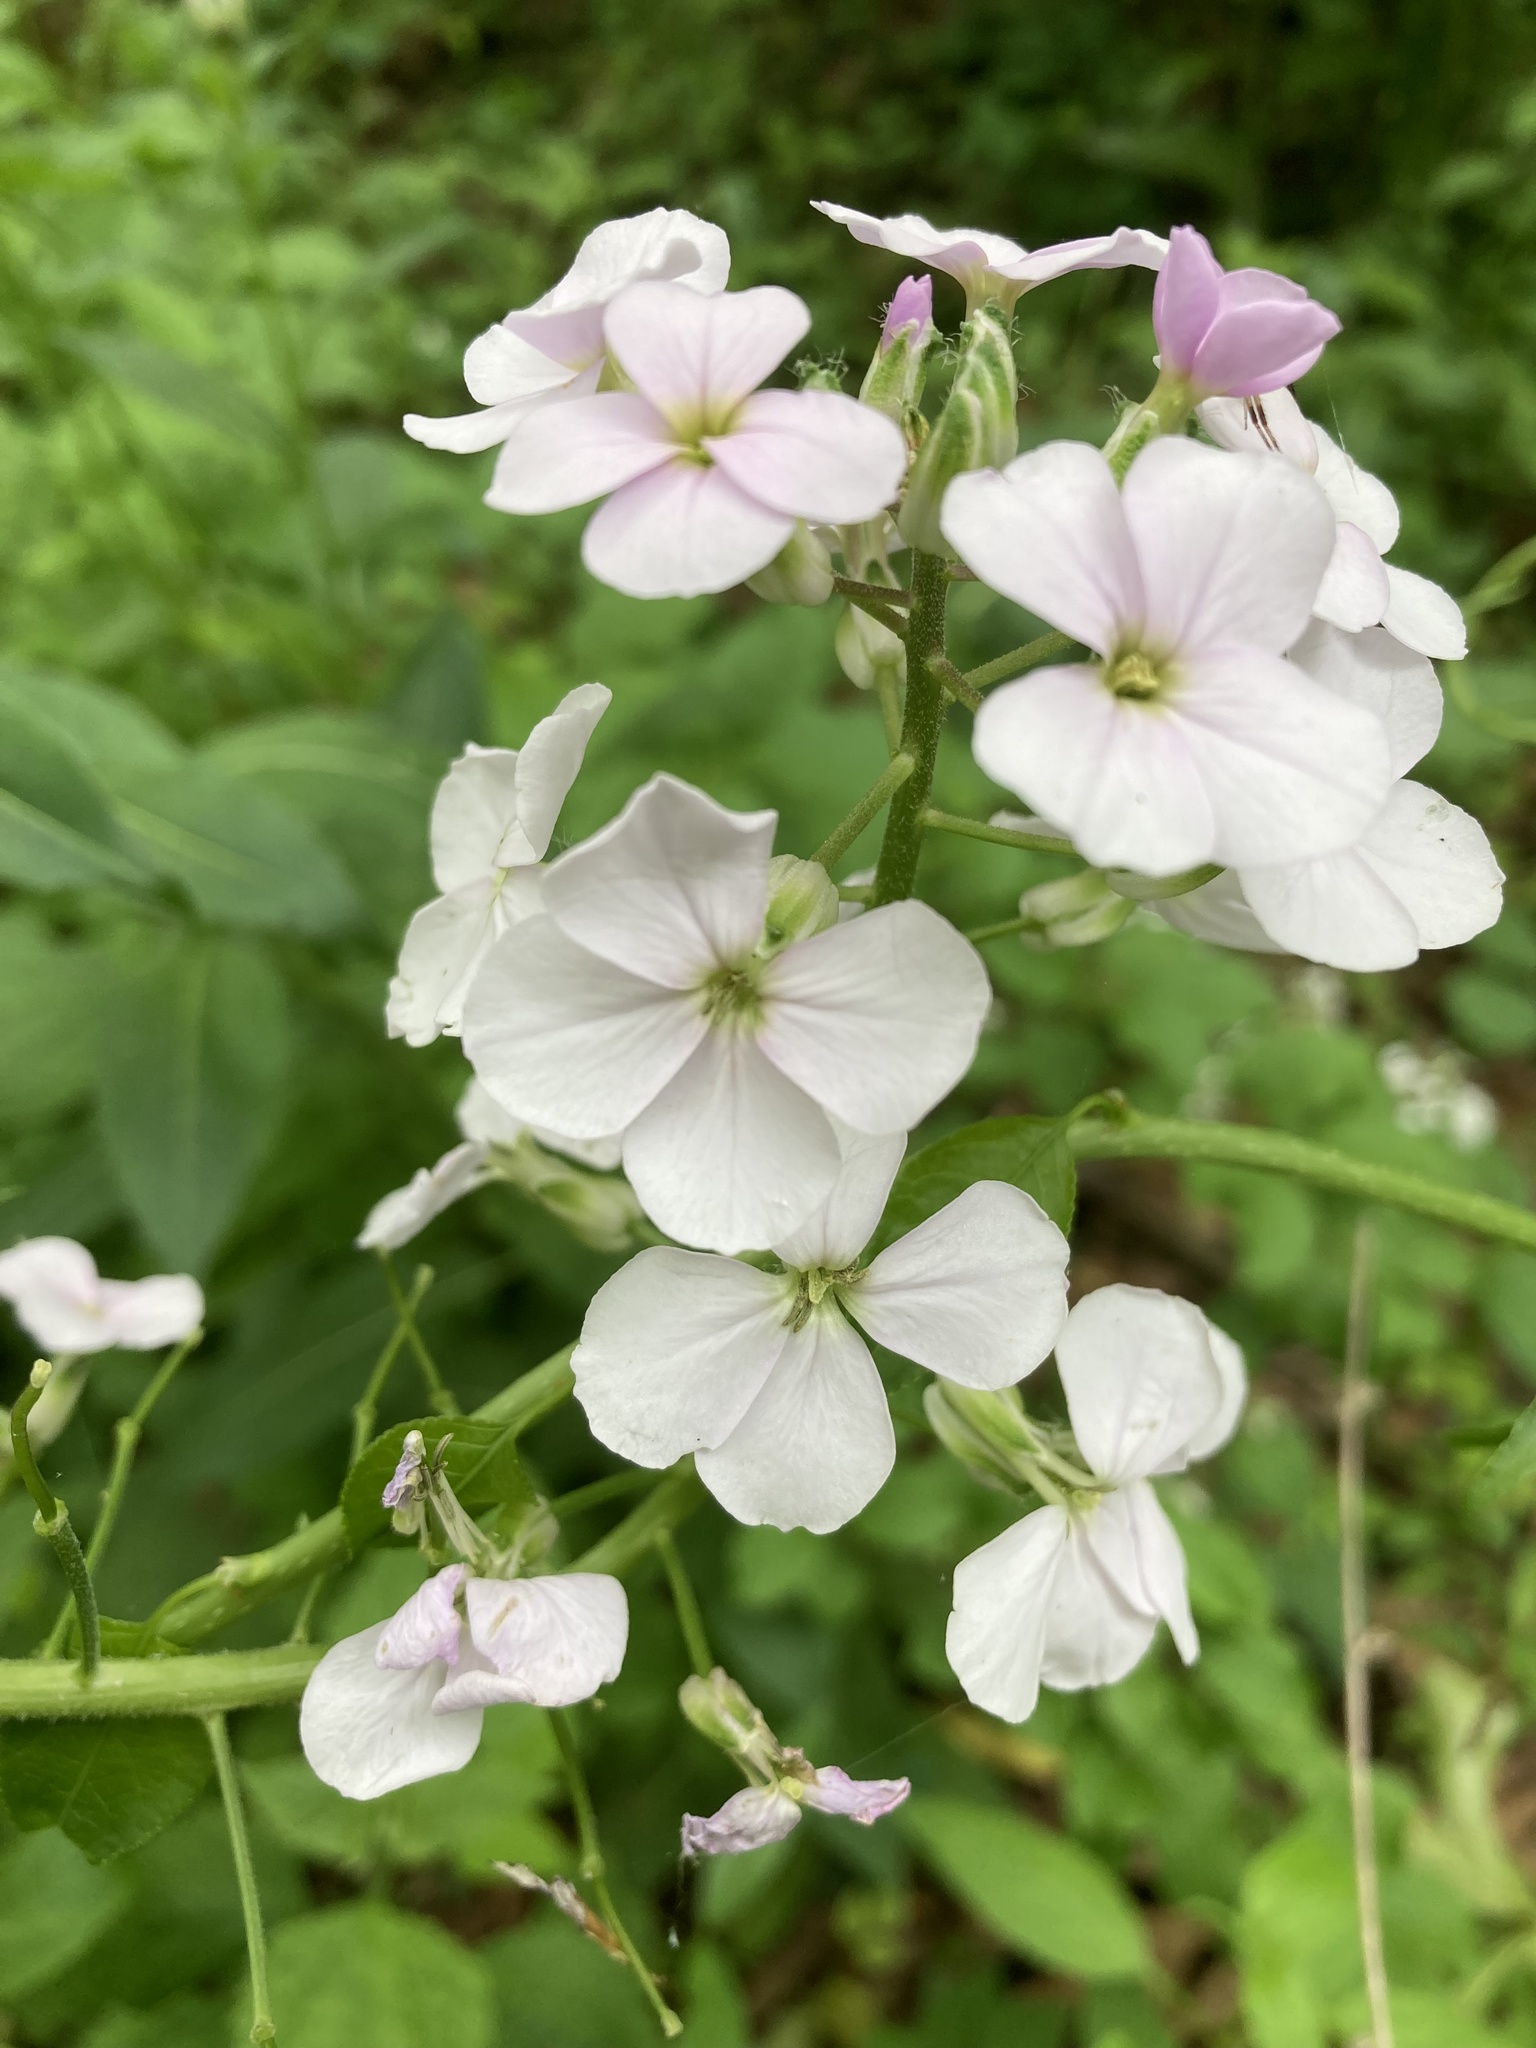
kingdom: Plantae
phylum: Tracheophyta
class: Magnoliopsida
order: Brassicales
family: Brassicaceae
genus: Hesperis
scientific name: Hesperis matronalis
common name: Dame's-violet
